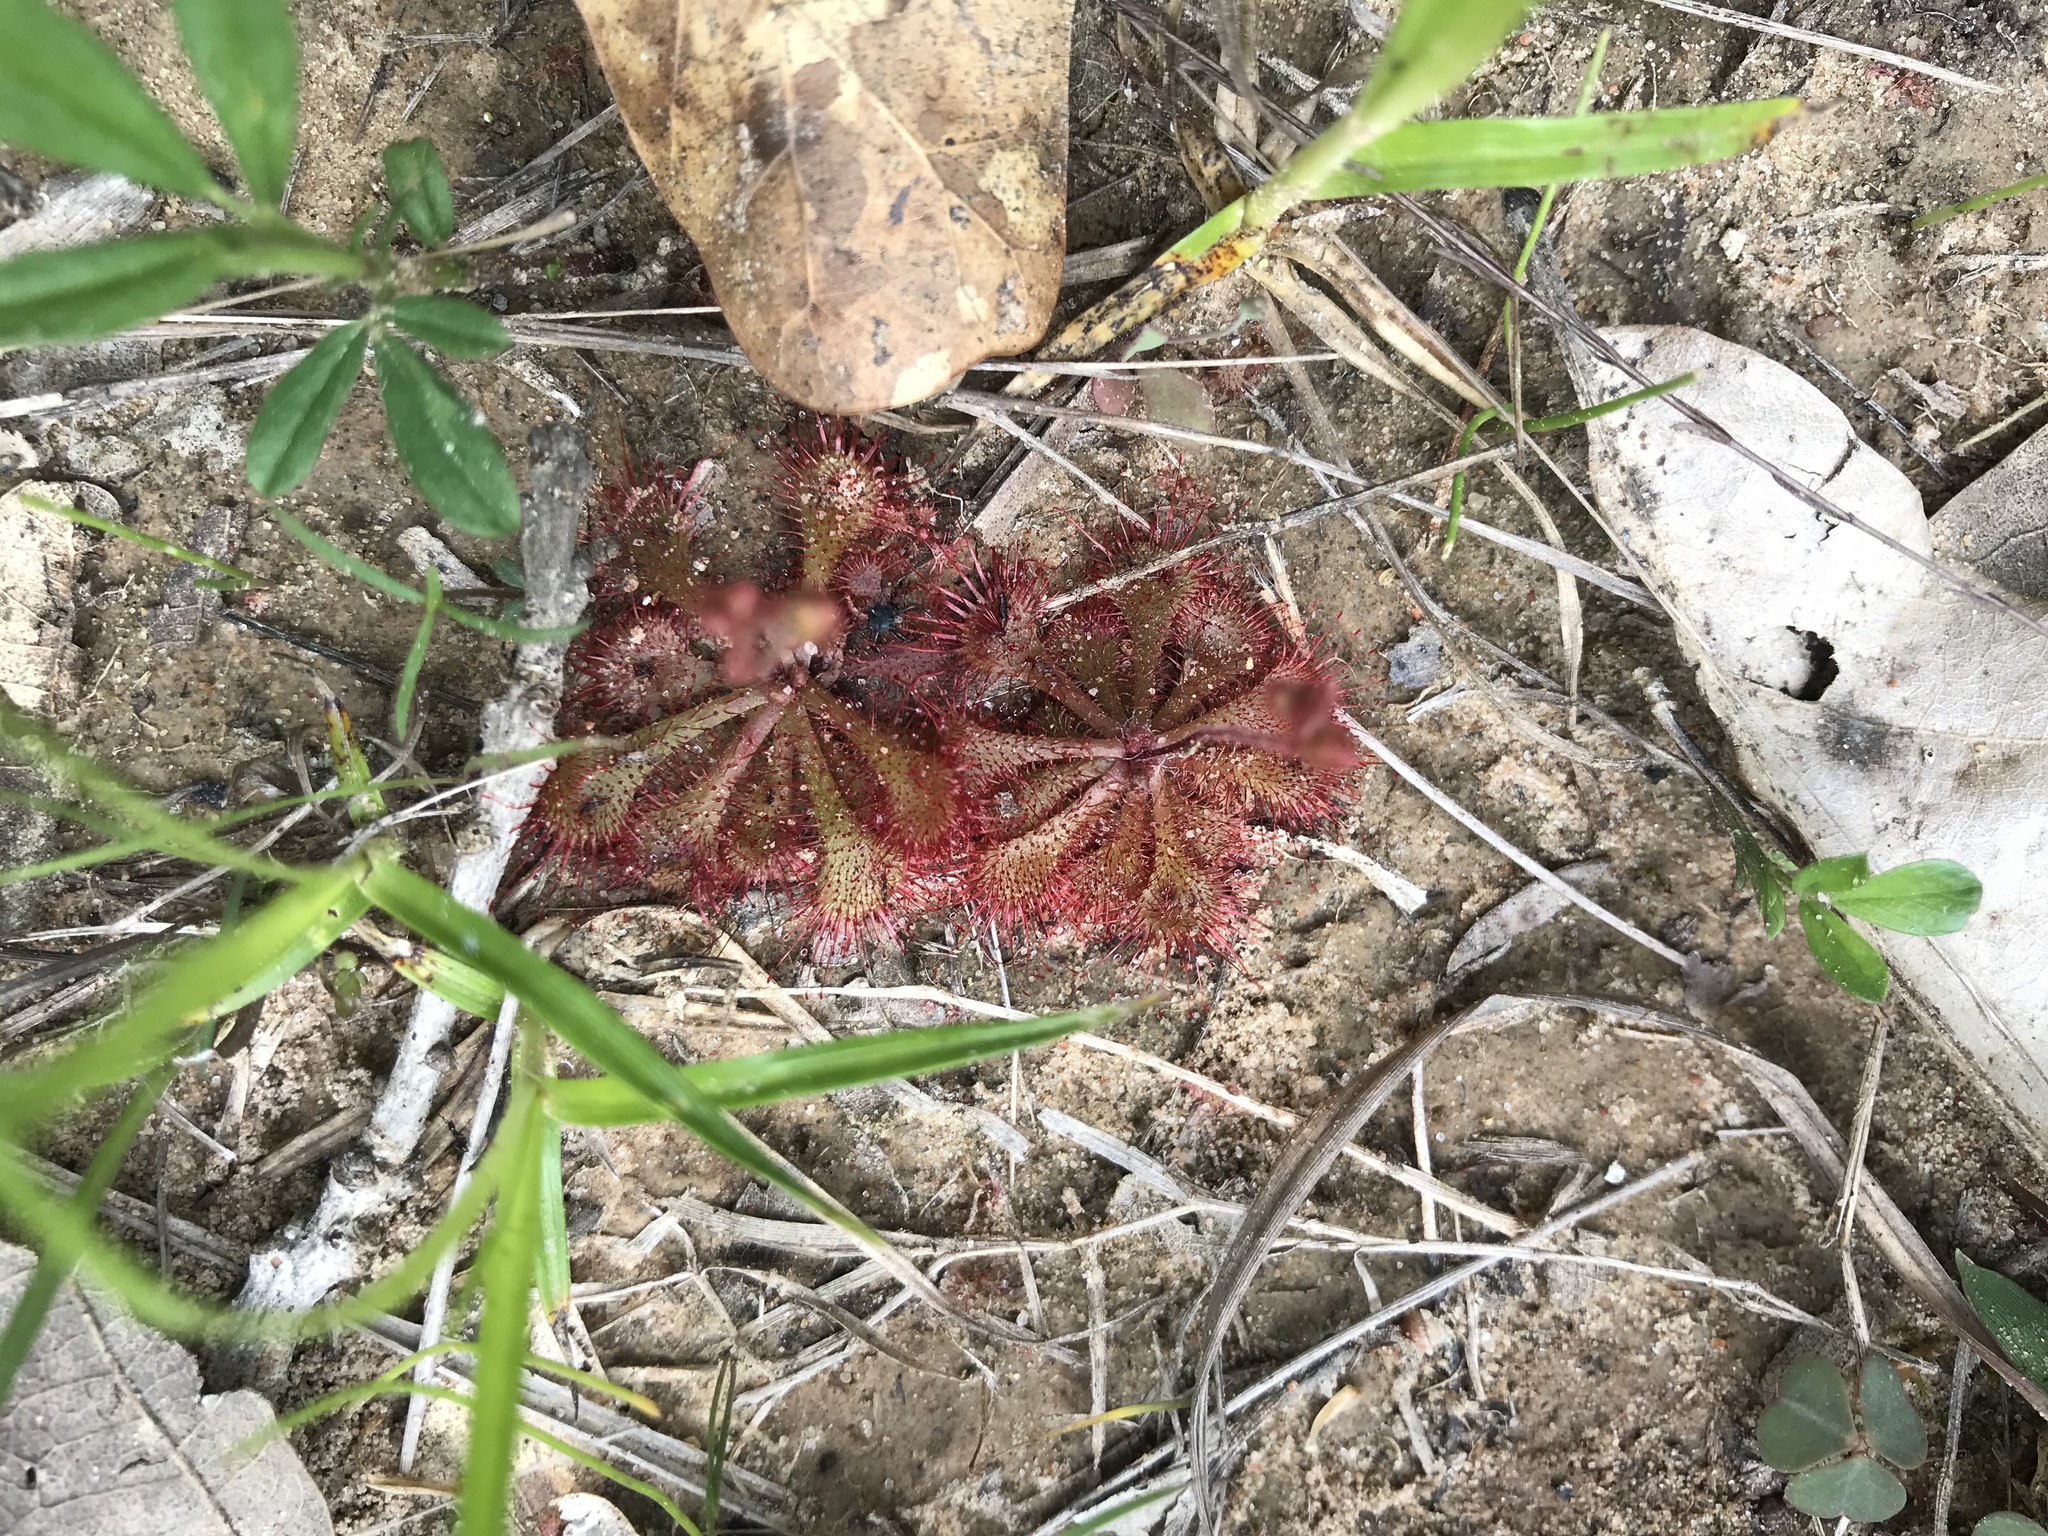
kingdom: Plantae
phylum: Tracheophyta
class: Magnoliopsida
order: Caryophyllales
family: Droseraceae
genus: Drosera
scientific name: Drosera brevifolia
